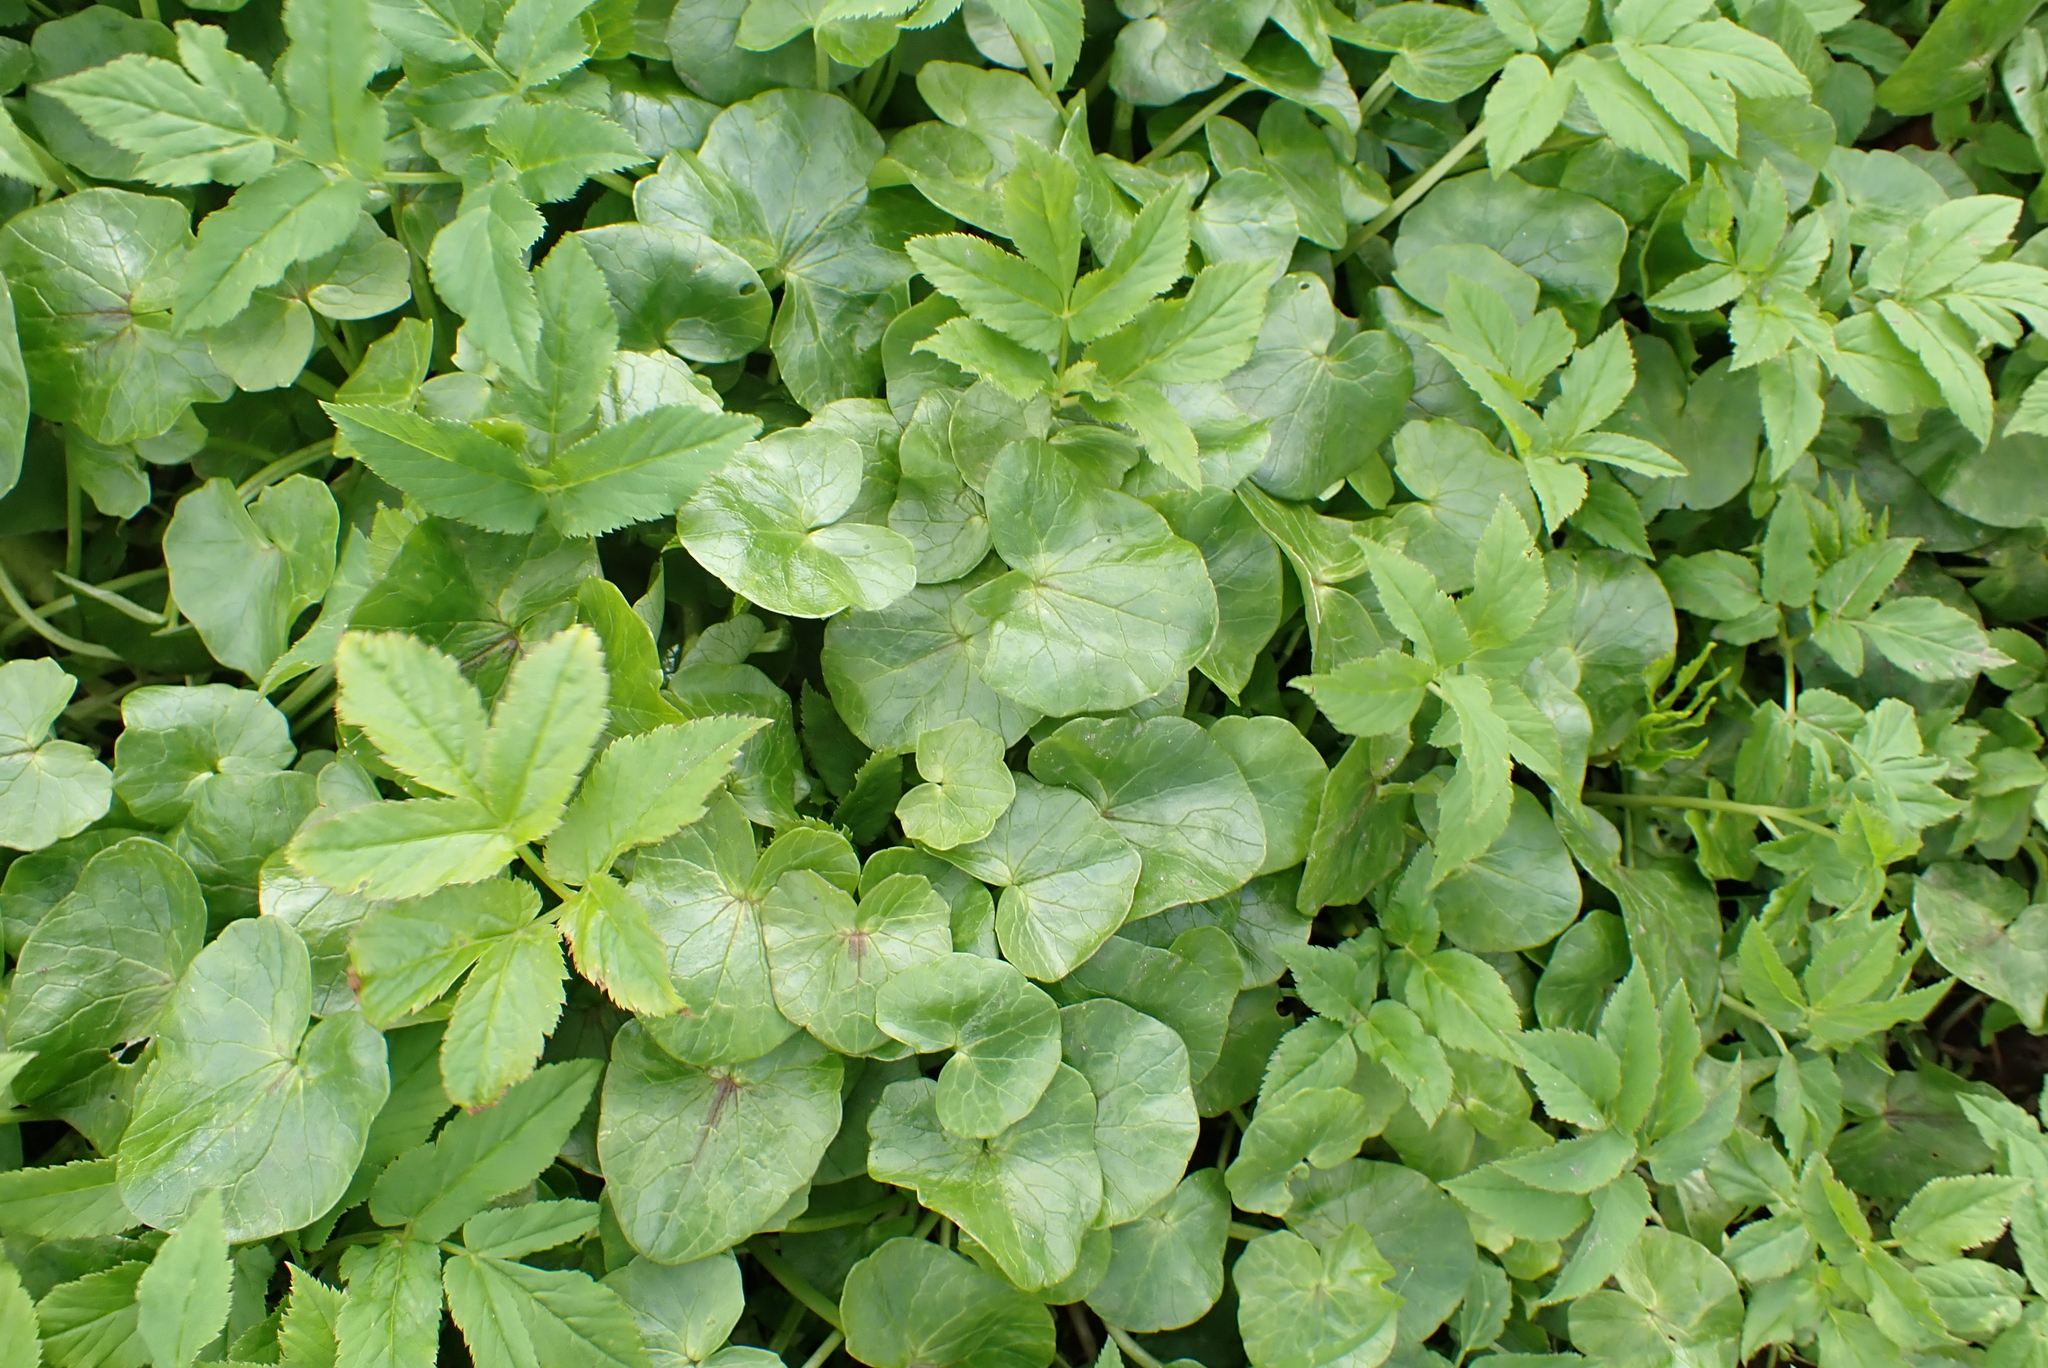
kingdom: Plantae
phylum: Tracheophyta
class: Magnoliopsida
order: Ranunculales
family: Ranunculaceae
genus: Ficaria
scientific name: Ficaria verna
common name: Lesser celandine
